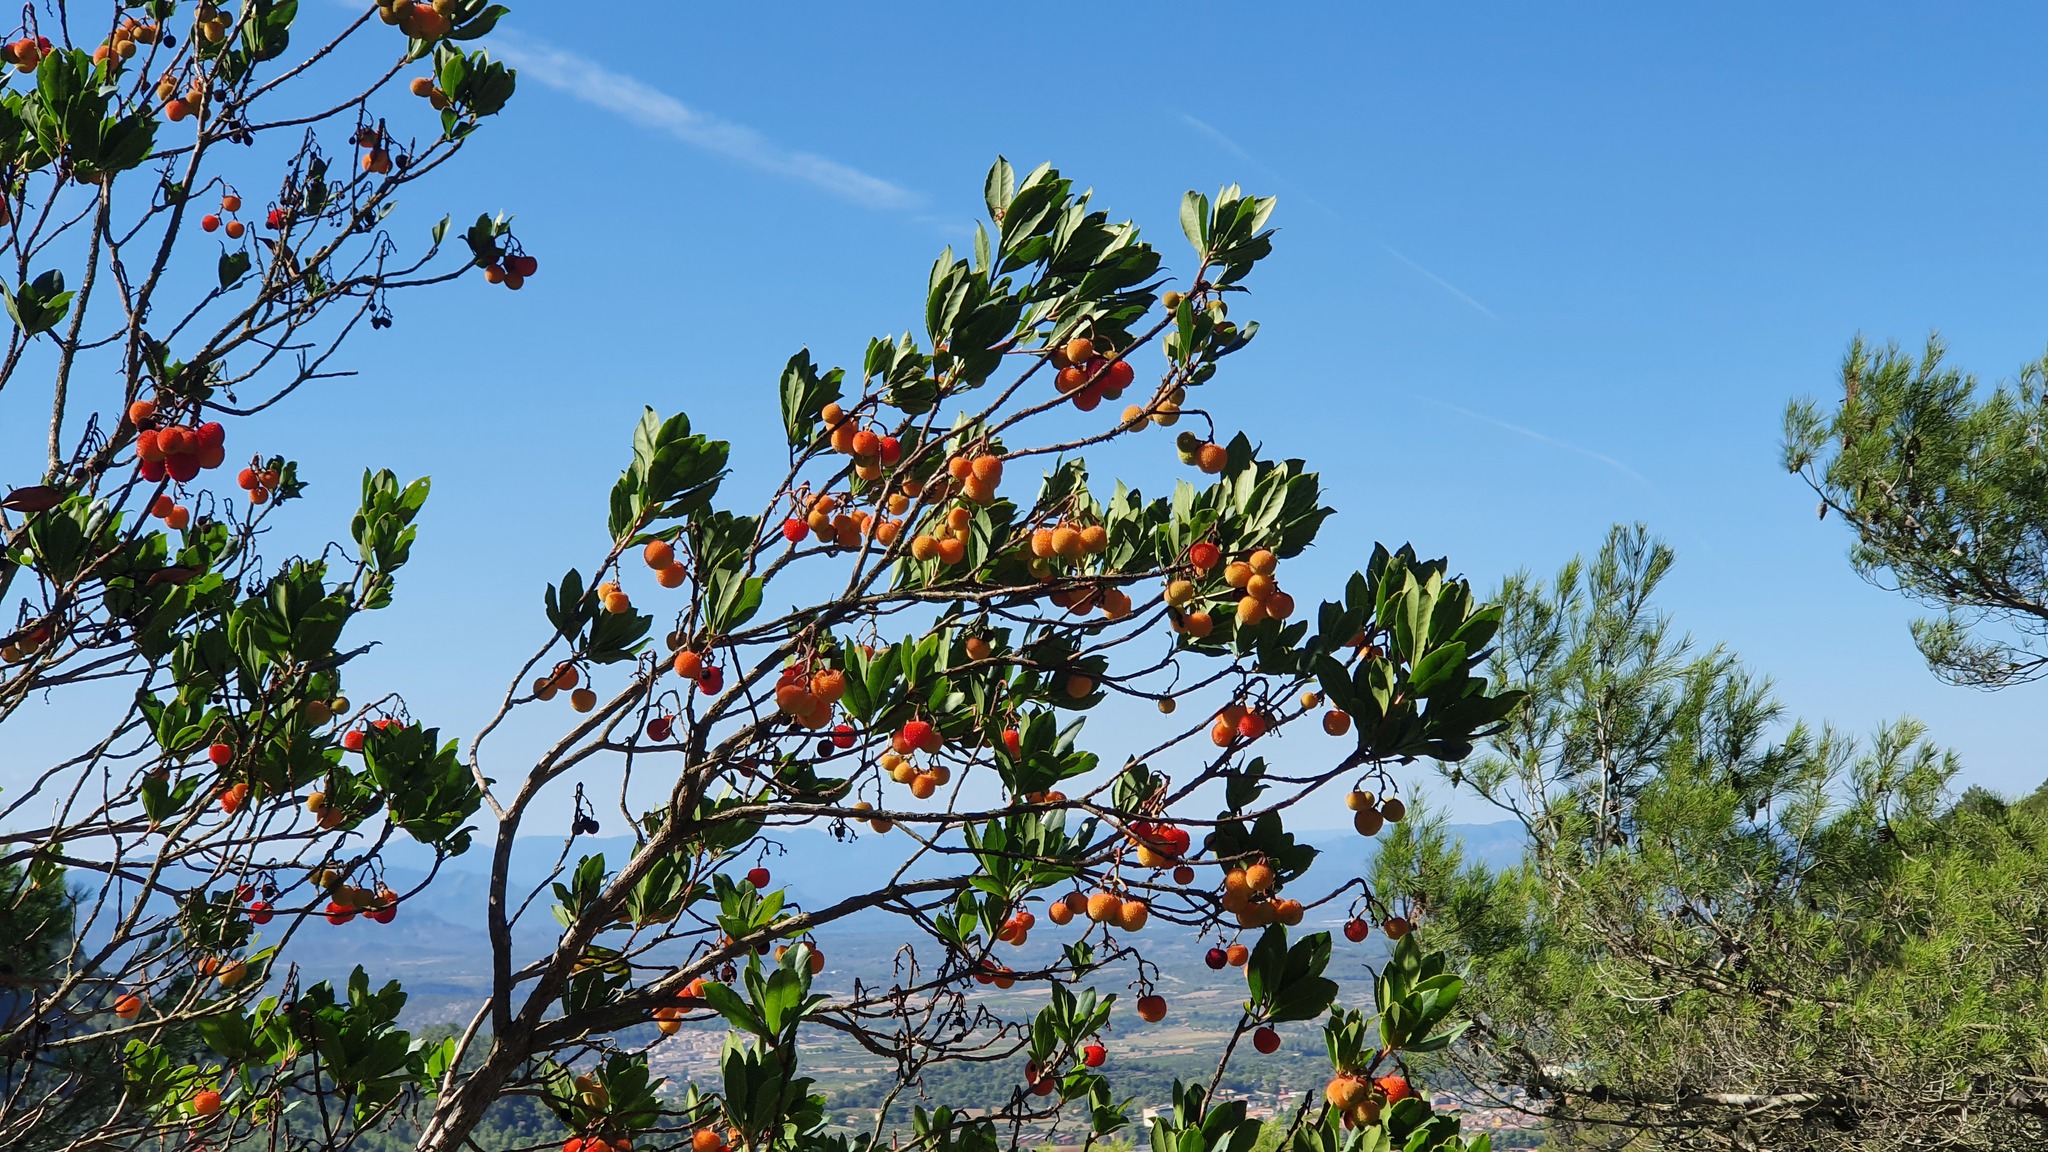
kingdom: Plantae
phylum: Tracheophyta
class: Magnoliopsida
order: Ericales
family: Ericaceae
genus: Arbutus
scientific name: Arbutus unedo
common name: Strawberry-tree
